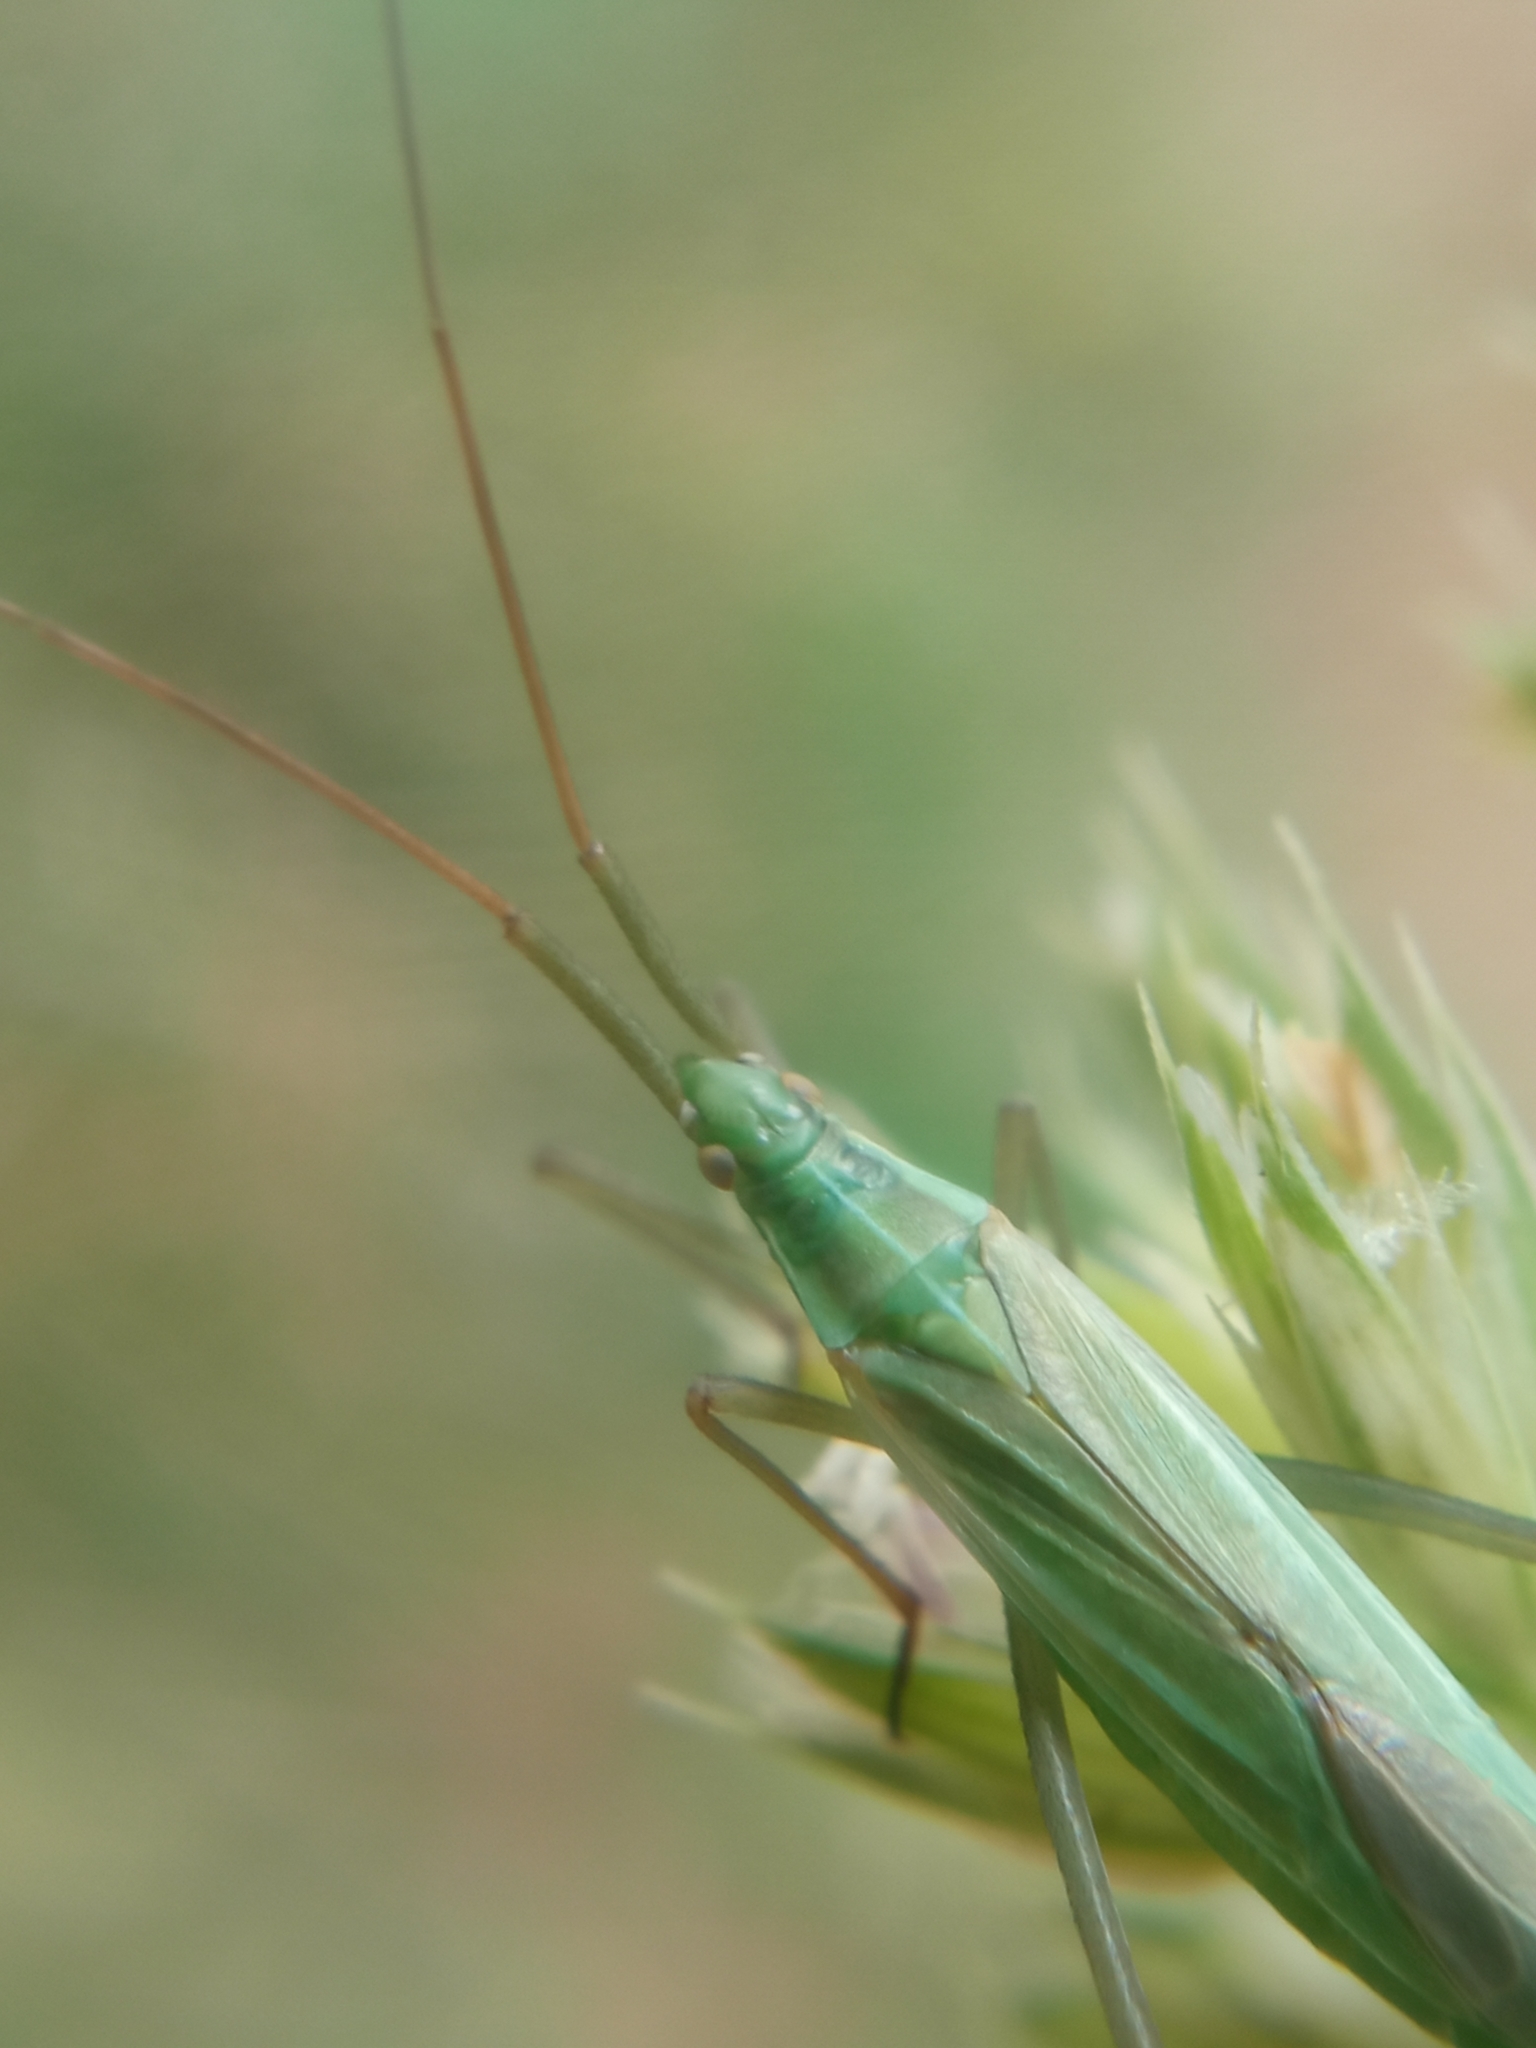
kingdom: Animalia
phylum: Arthropoda
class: Insecta
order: Hemiptera
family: Miridae
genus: Megaloceroea
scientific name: Megaloceroea recticornis
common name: Plant bug
